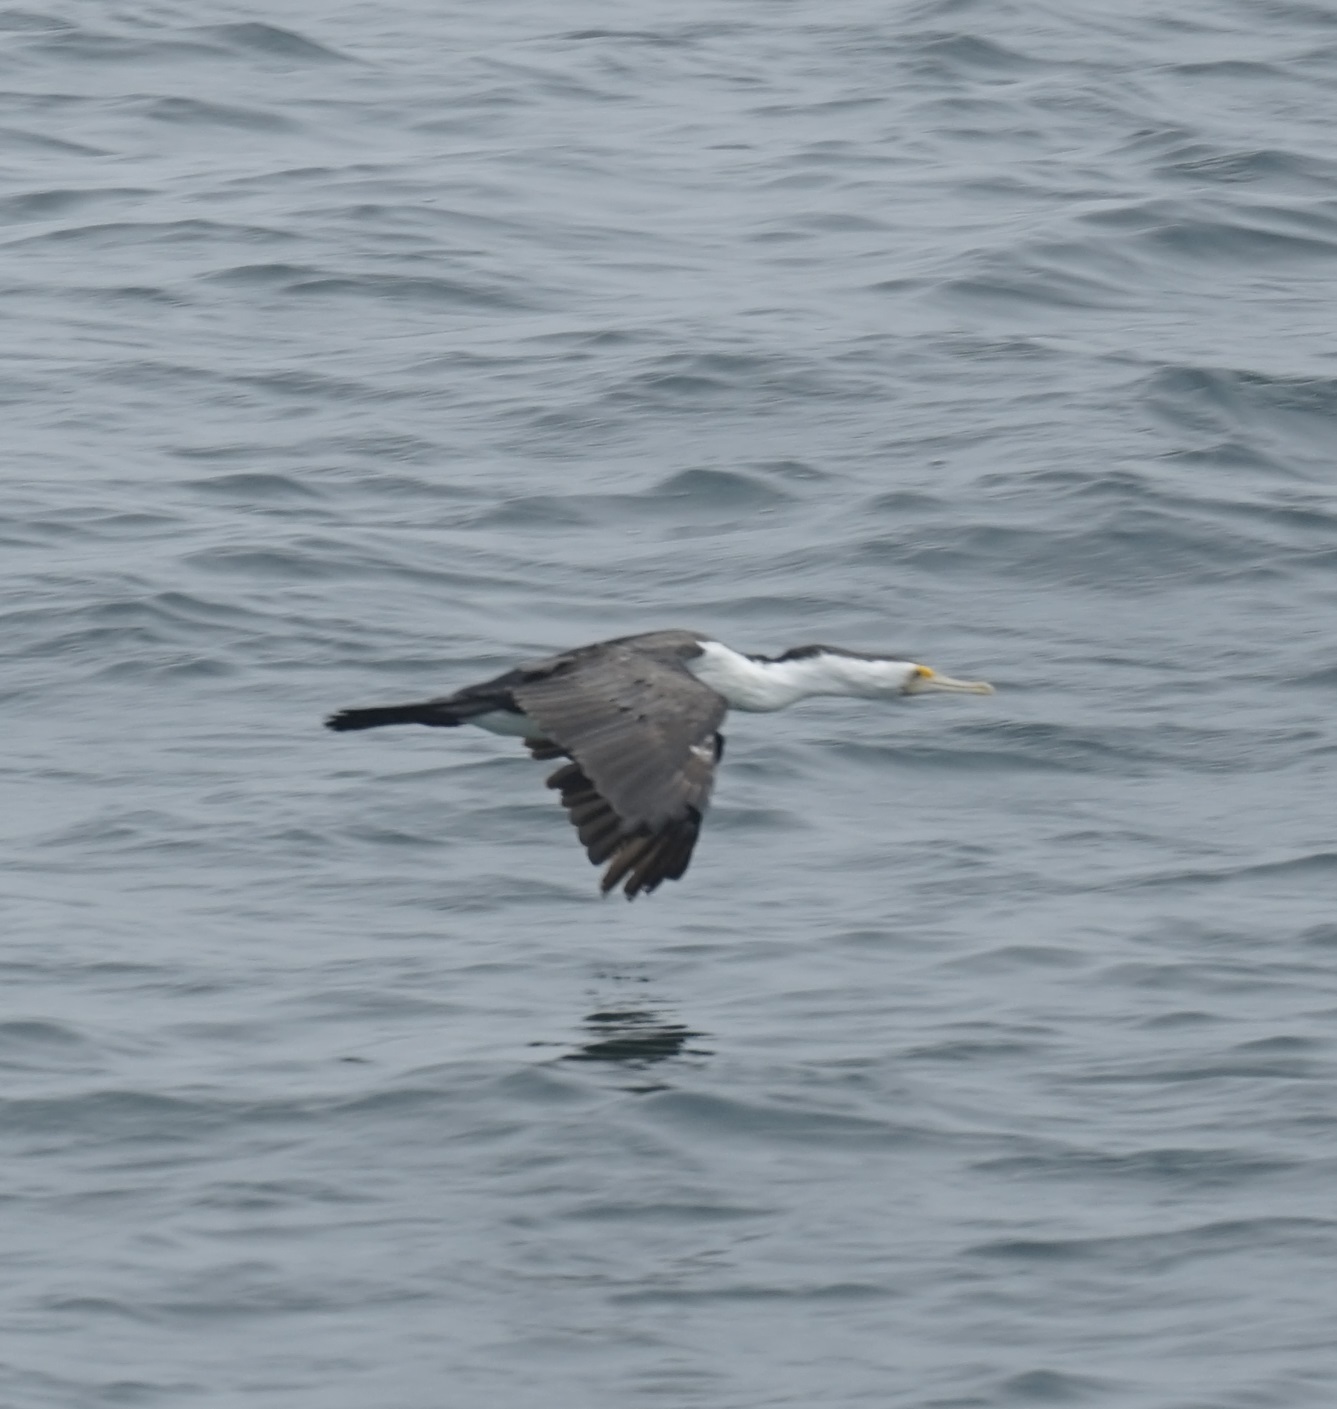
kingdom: Animalia
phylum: Chordata
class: Aves
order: Suliformes
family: Phalacrocoracidae
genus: Phalacrocorax
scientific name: Phalacrocorax varius
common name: Pied cormorant
